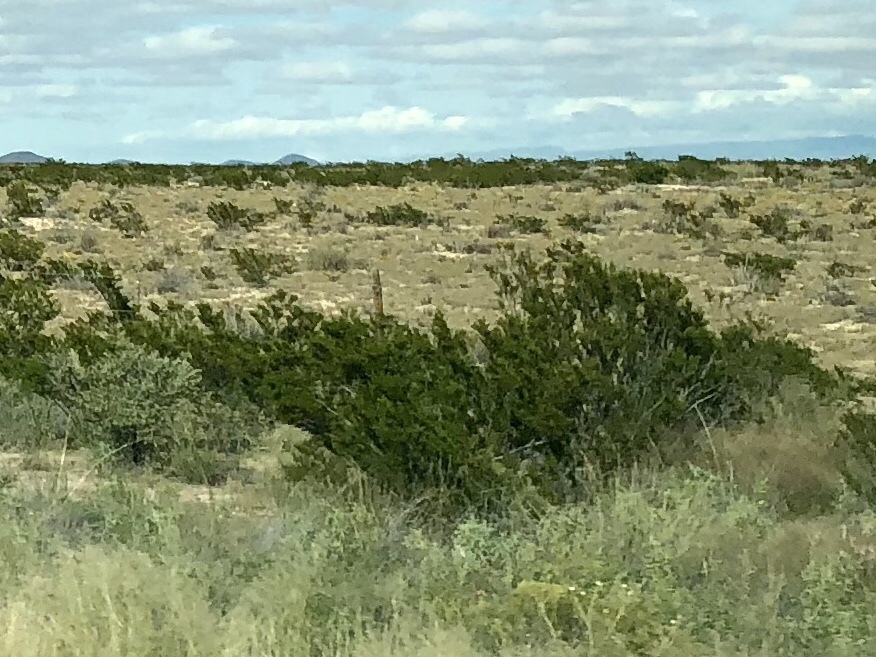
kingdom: Plantae
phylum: Tracheophyta
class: Magnoliopsida
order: Zygophyllales
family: Zygophyllaceae
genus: Larrea
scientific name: Larrea tridentata
